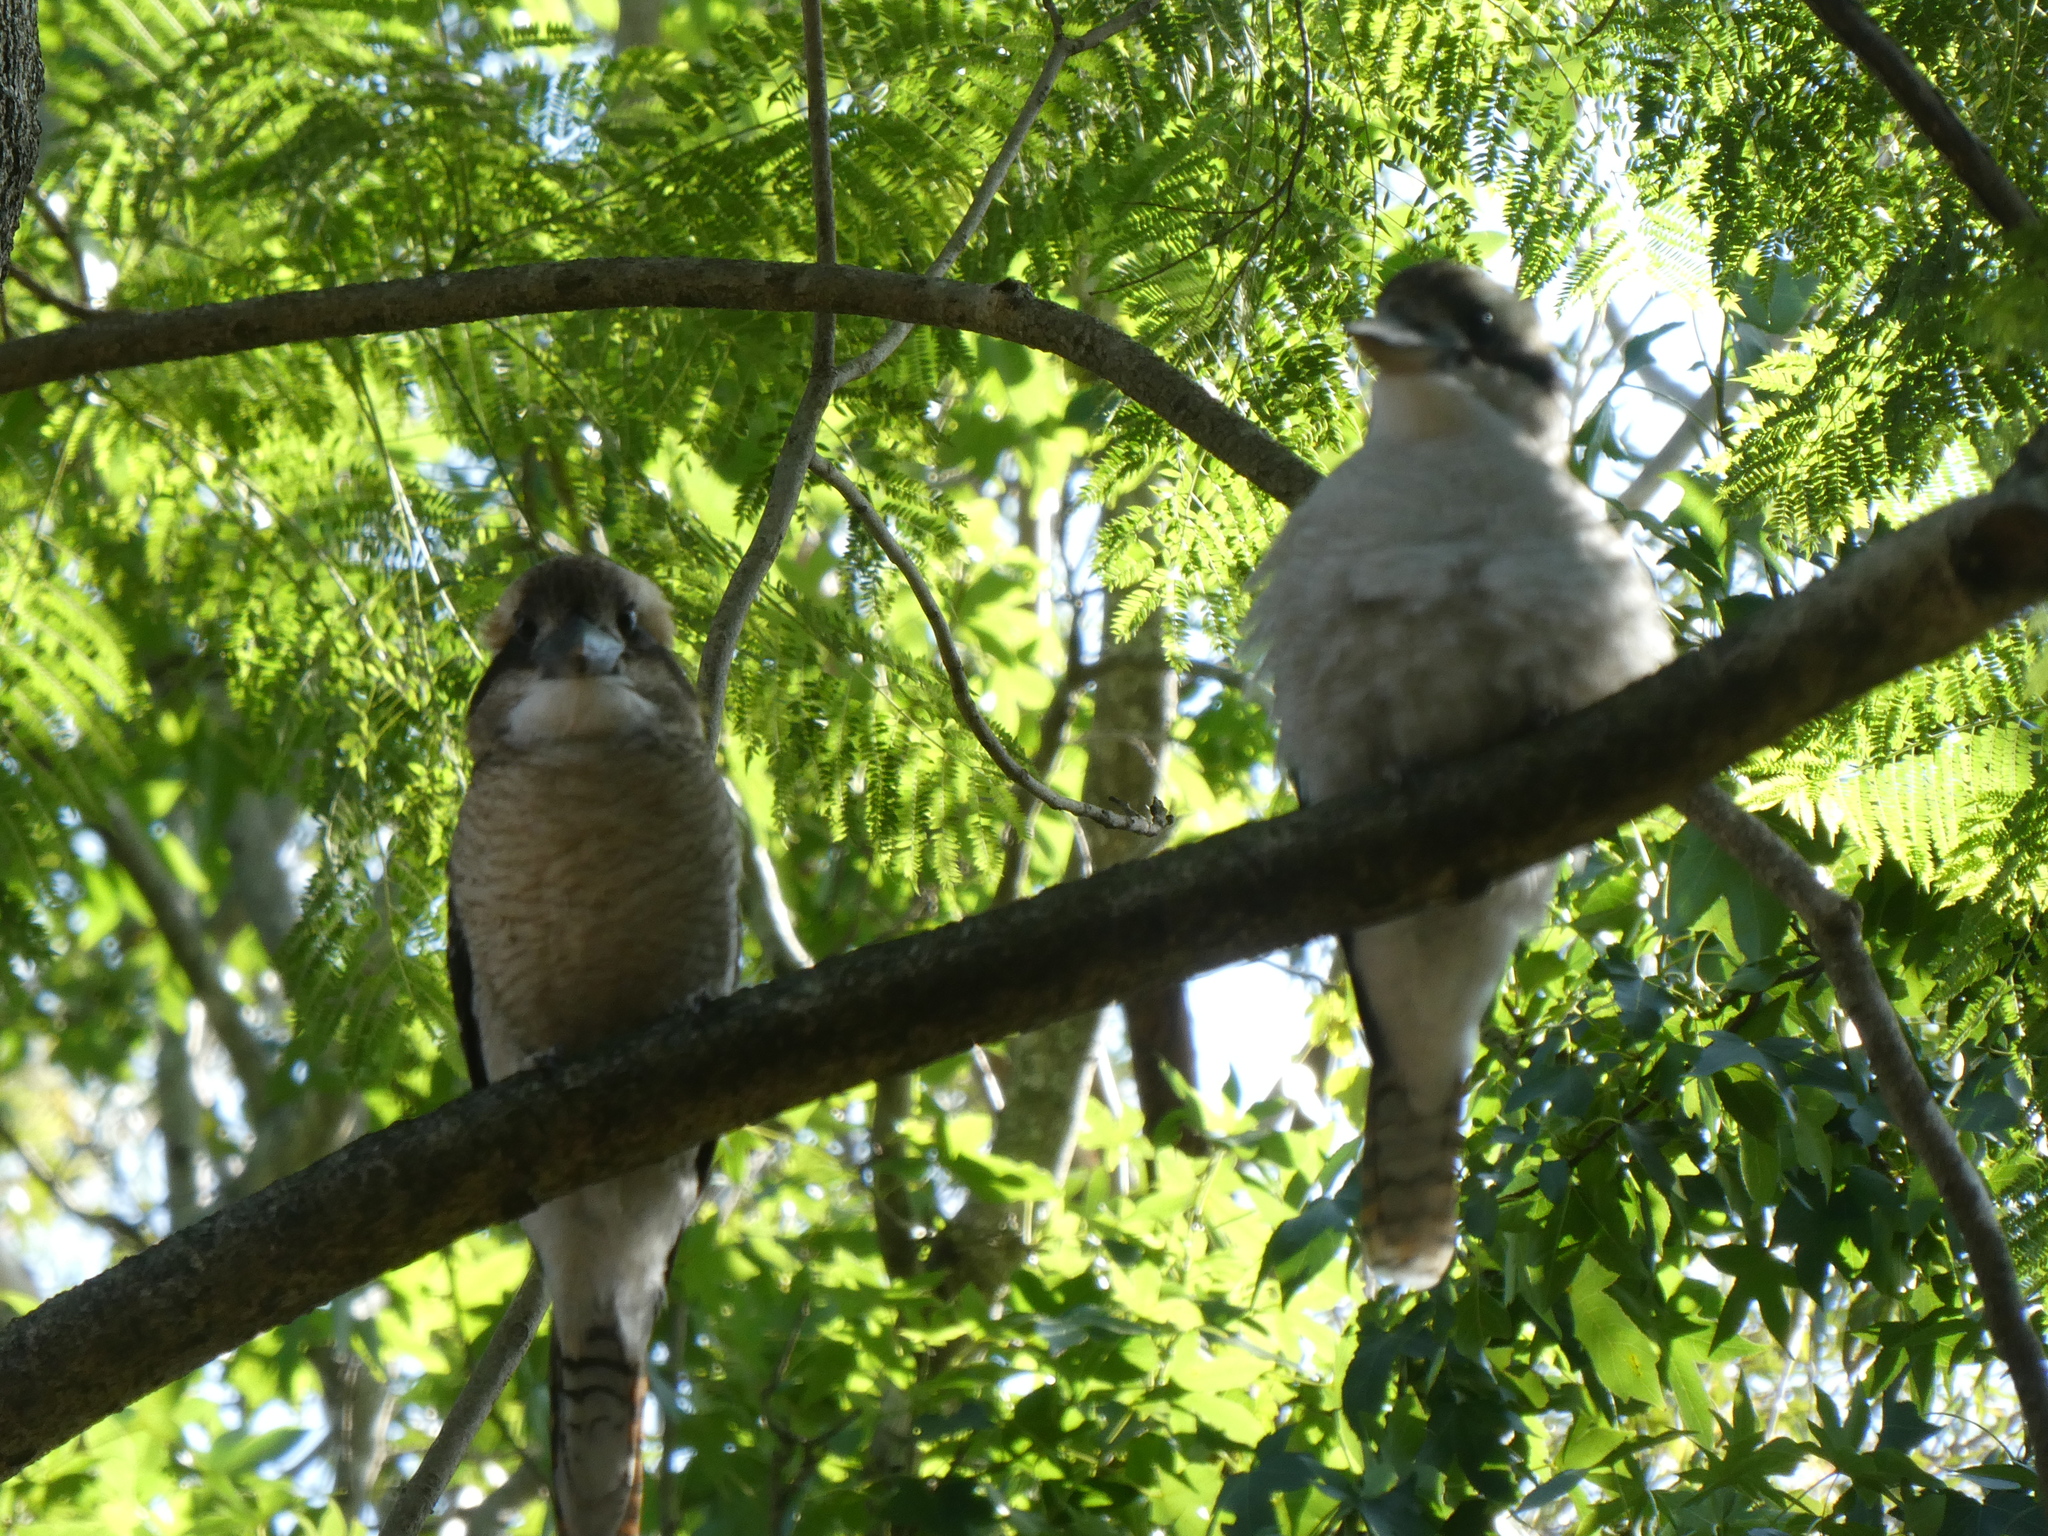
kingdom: Animalia
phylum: Chordata
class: Aves
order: Coraciiformes
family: Alcedinidae
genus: Dacelo
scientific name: Dacelo novaeguineae
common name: Laughing kookaburra
